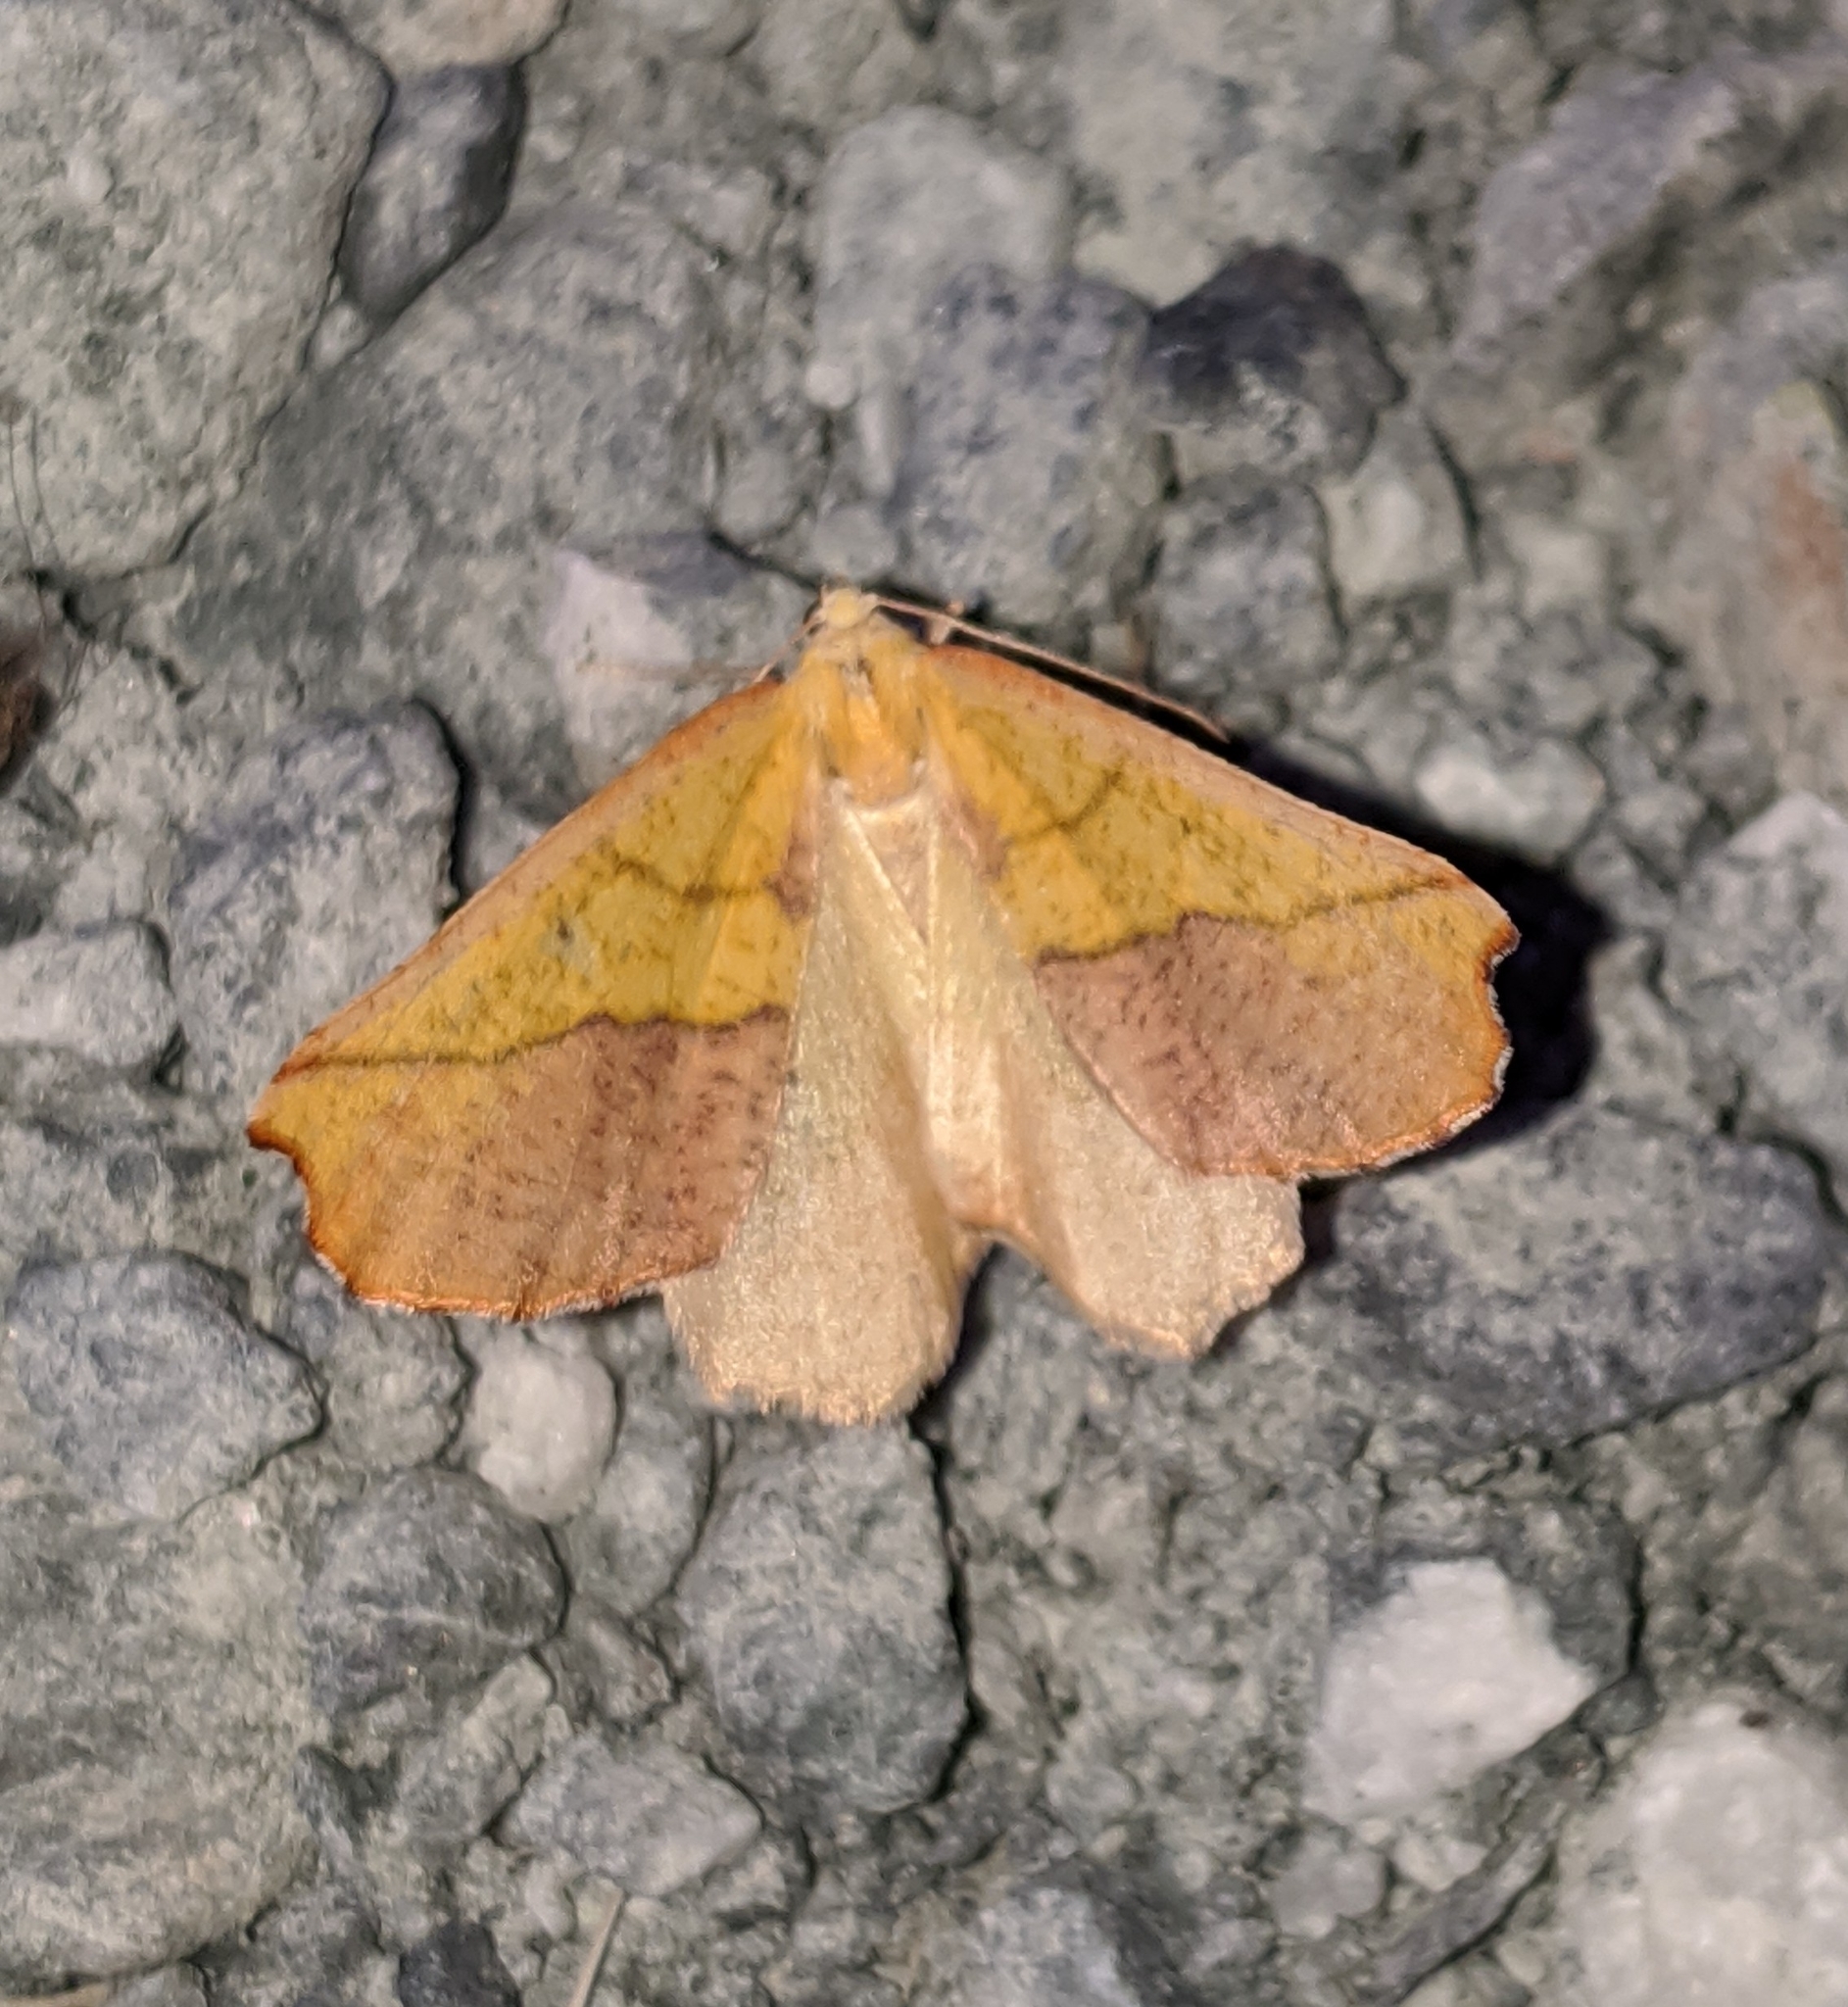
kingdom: Animalia
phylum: Arthropoda
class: Insecta
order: Lepidoptera
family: Geometridae
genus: Sicya
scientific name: Sicya macularia
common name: Sharp-lined yellow
